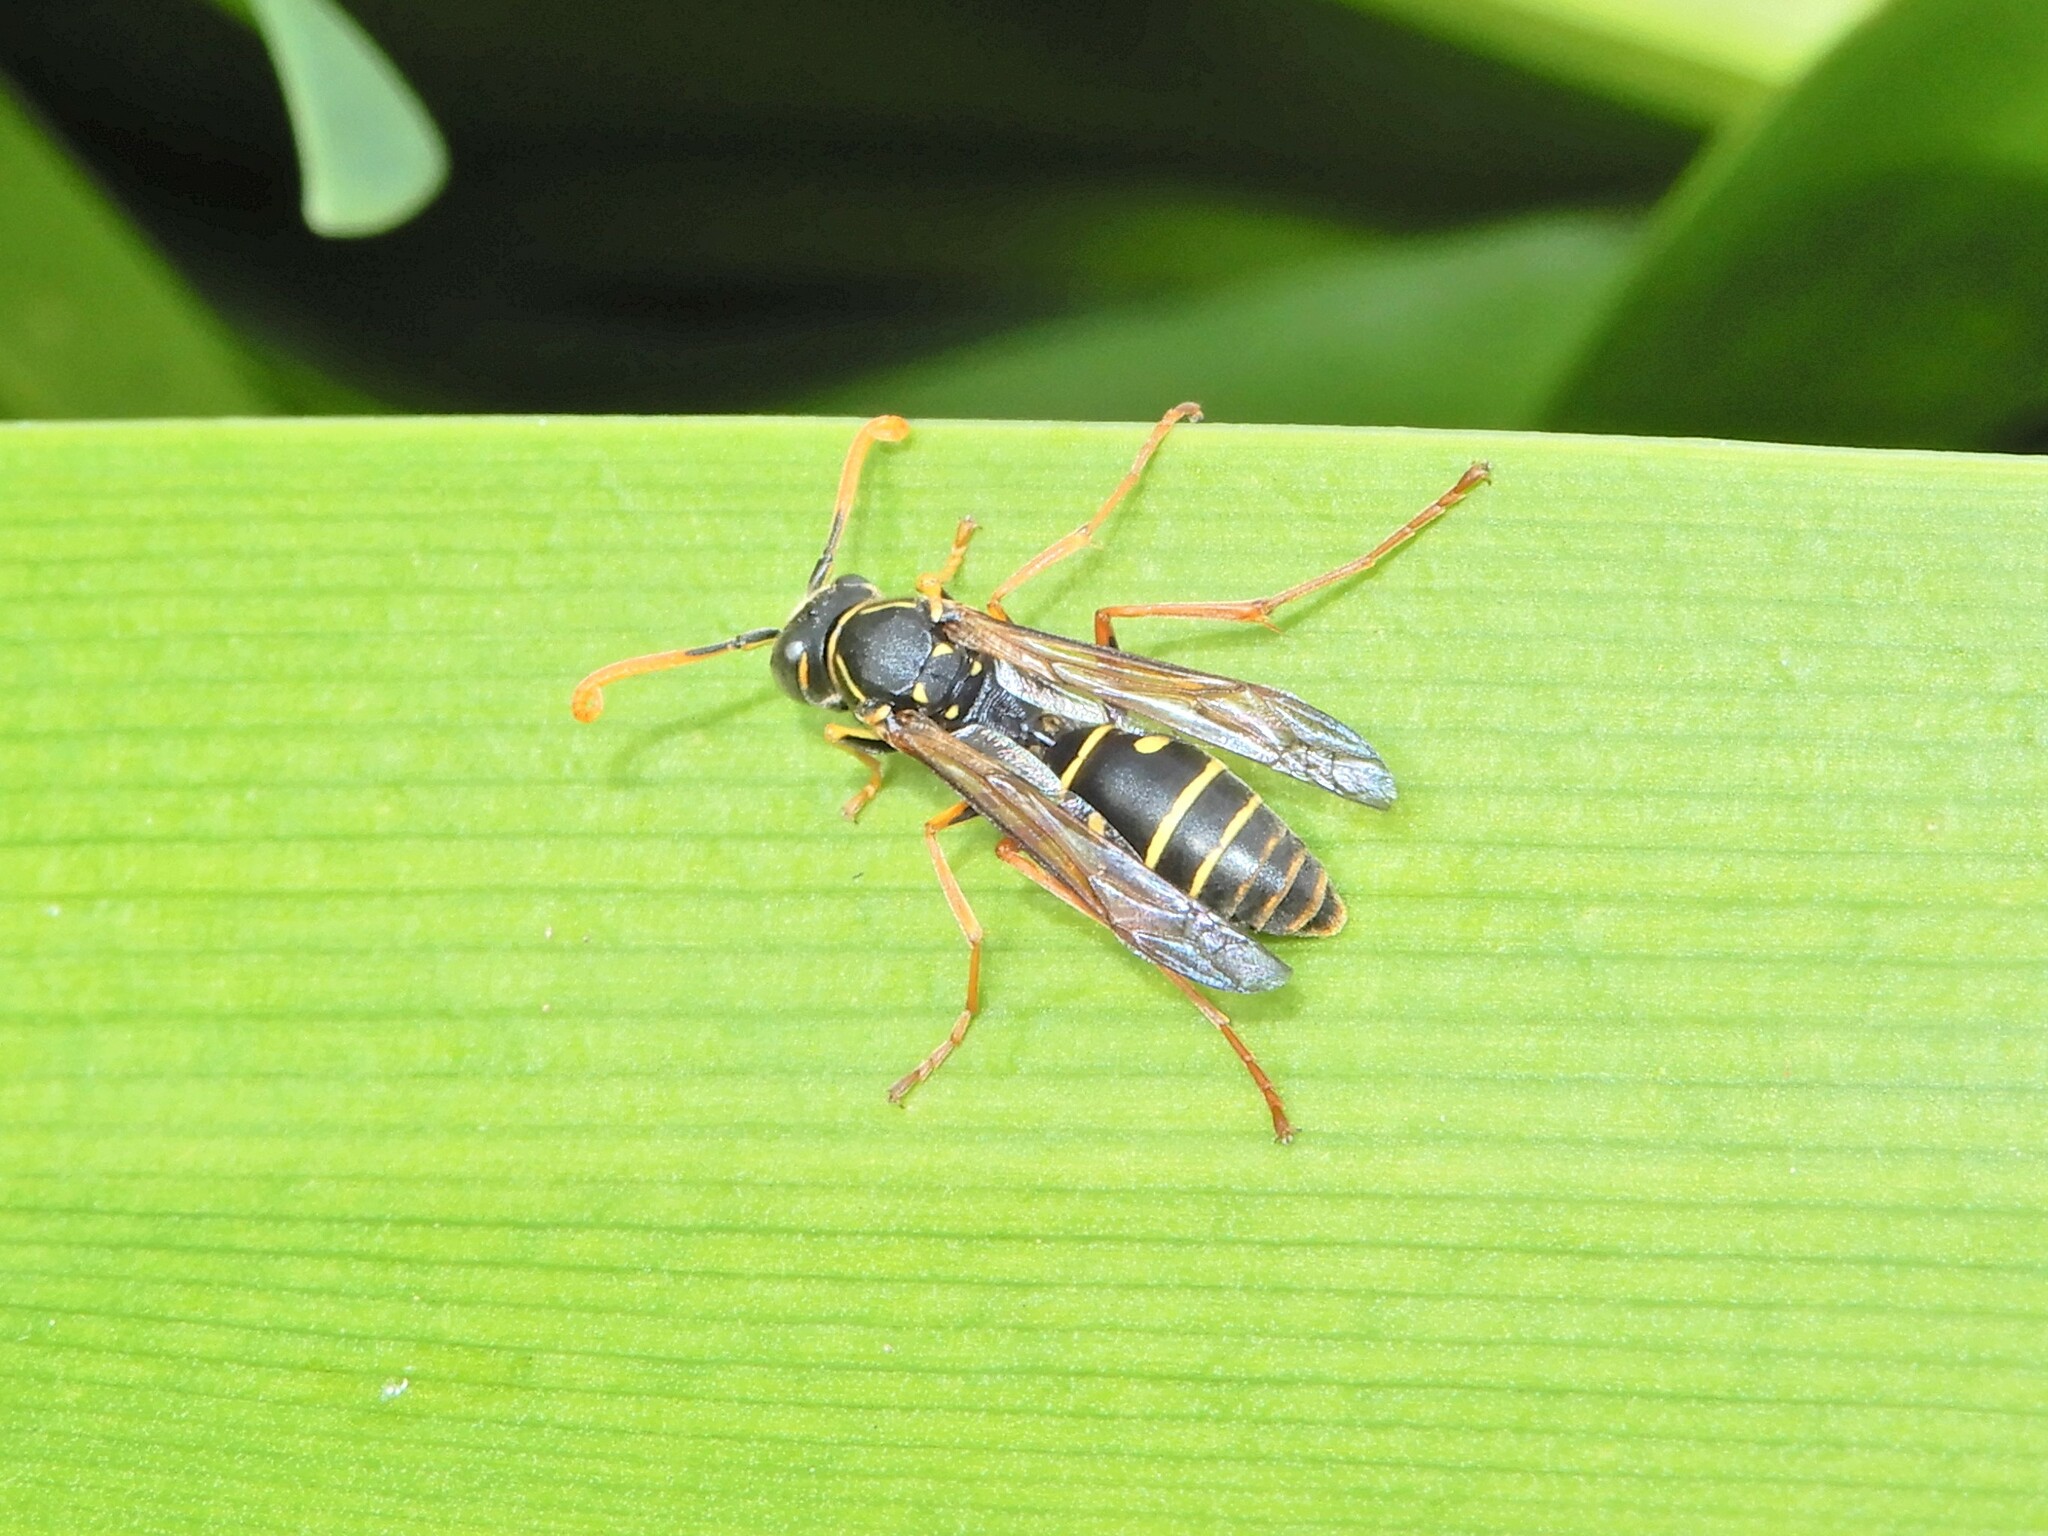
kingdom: Animalia
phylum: Arthropoda
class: Insecta
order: Hymenoptera
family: Eumenidae
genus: Polistes
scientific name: Polistes chinensis
